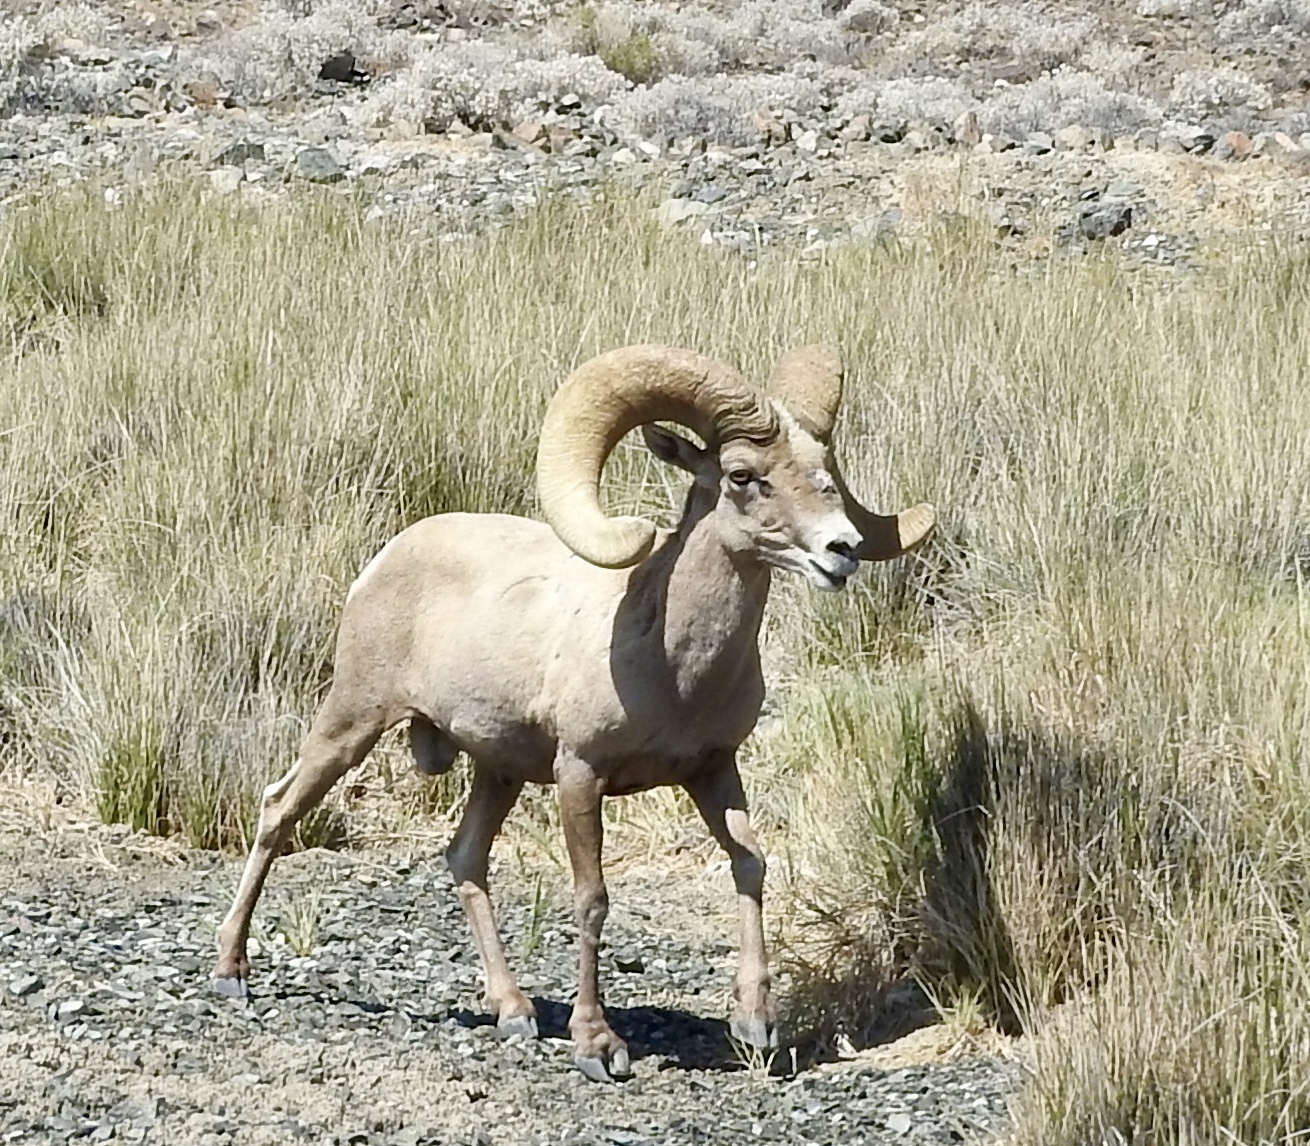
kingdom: Animalia
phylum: Chordata
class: Mammalia
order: Artiodactyla
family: Bovidae
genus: Ovis
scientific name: Ovis canadensis
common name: Bighorn sheep
